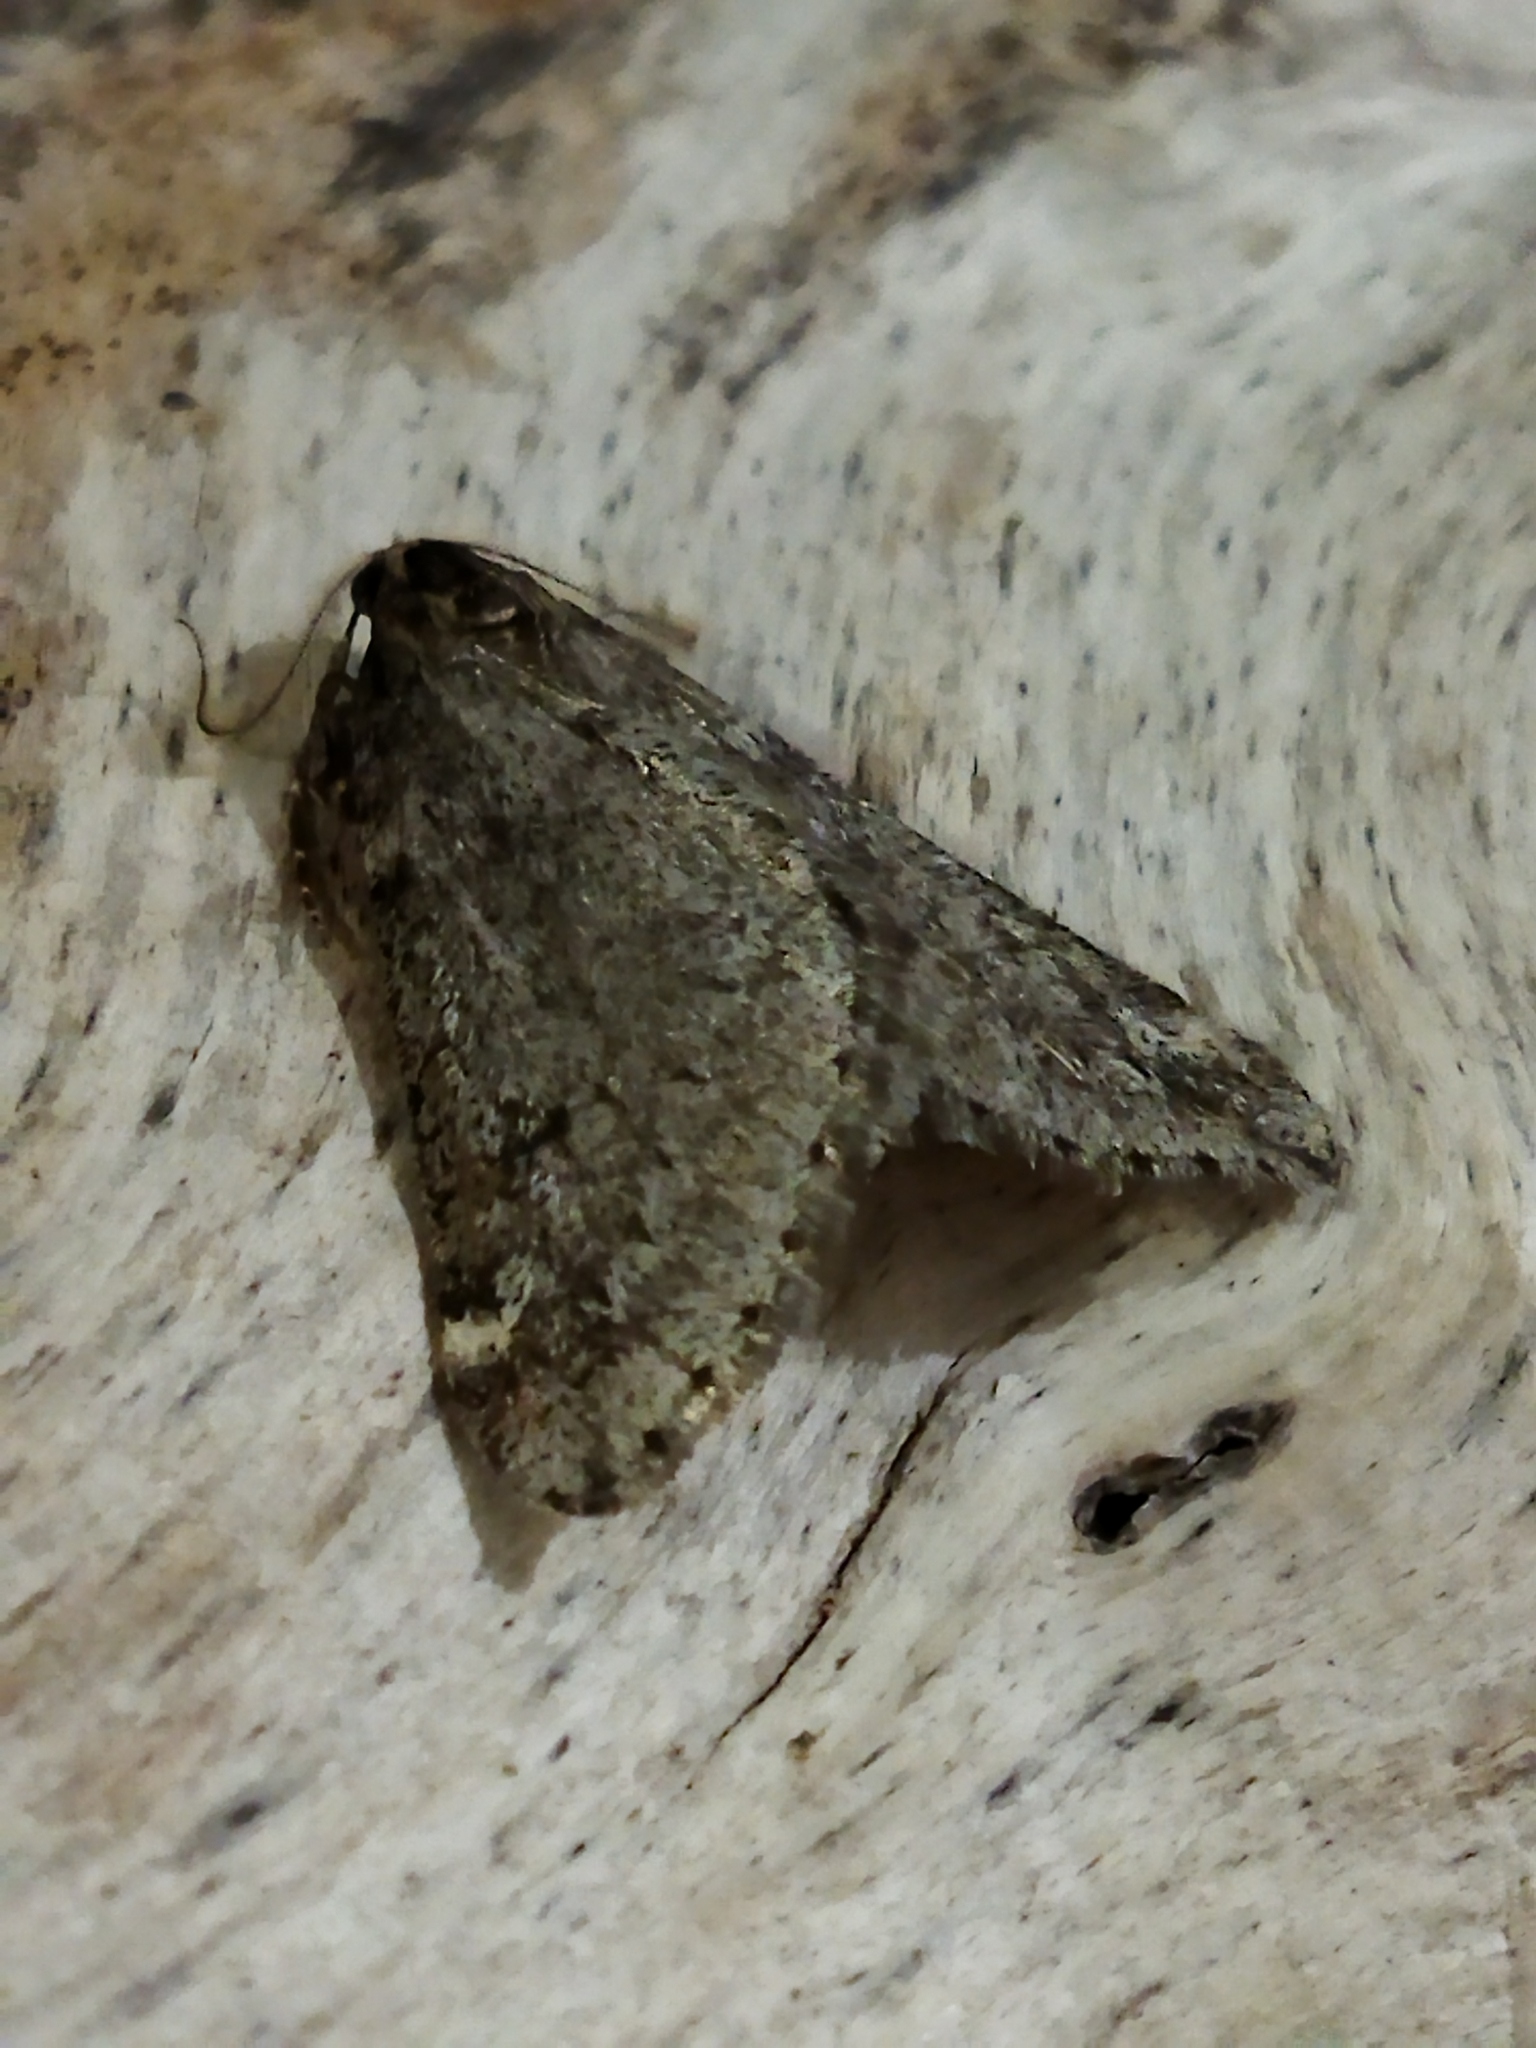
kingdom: Animalia
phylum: Arthropoda
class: Insecta
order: Lepidoptera
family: Geometridae
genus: Alsophila
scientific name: Alsophila aescularia
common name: March moth
